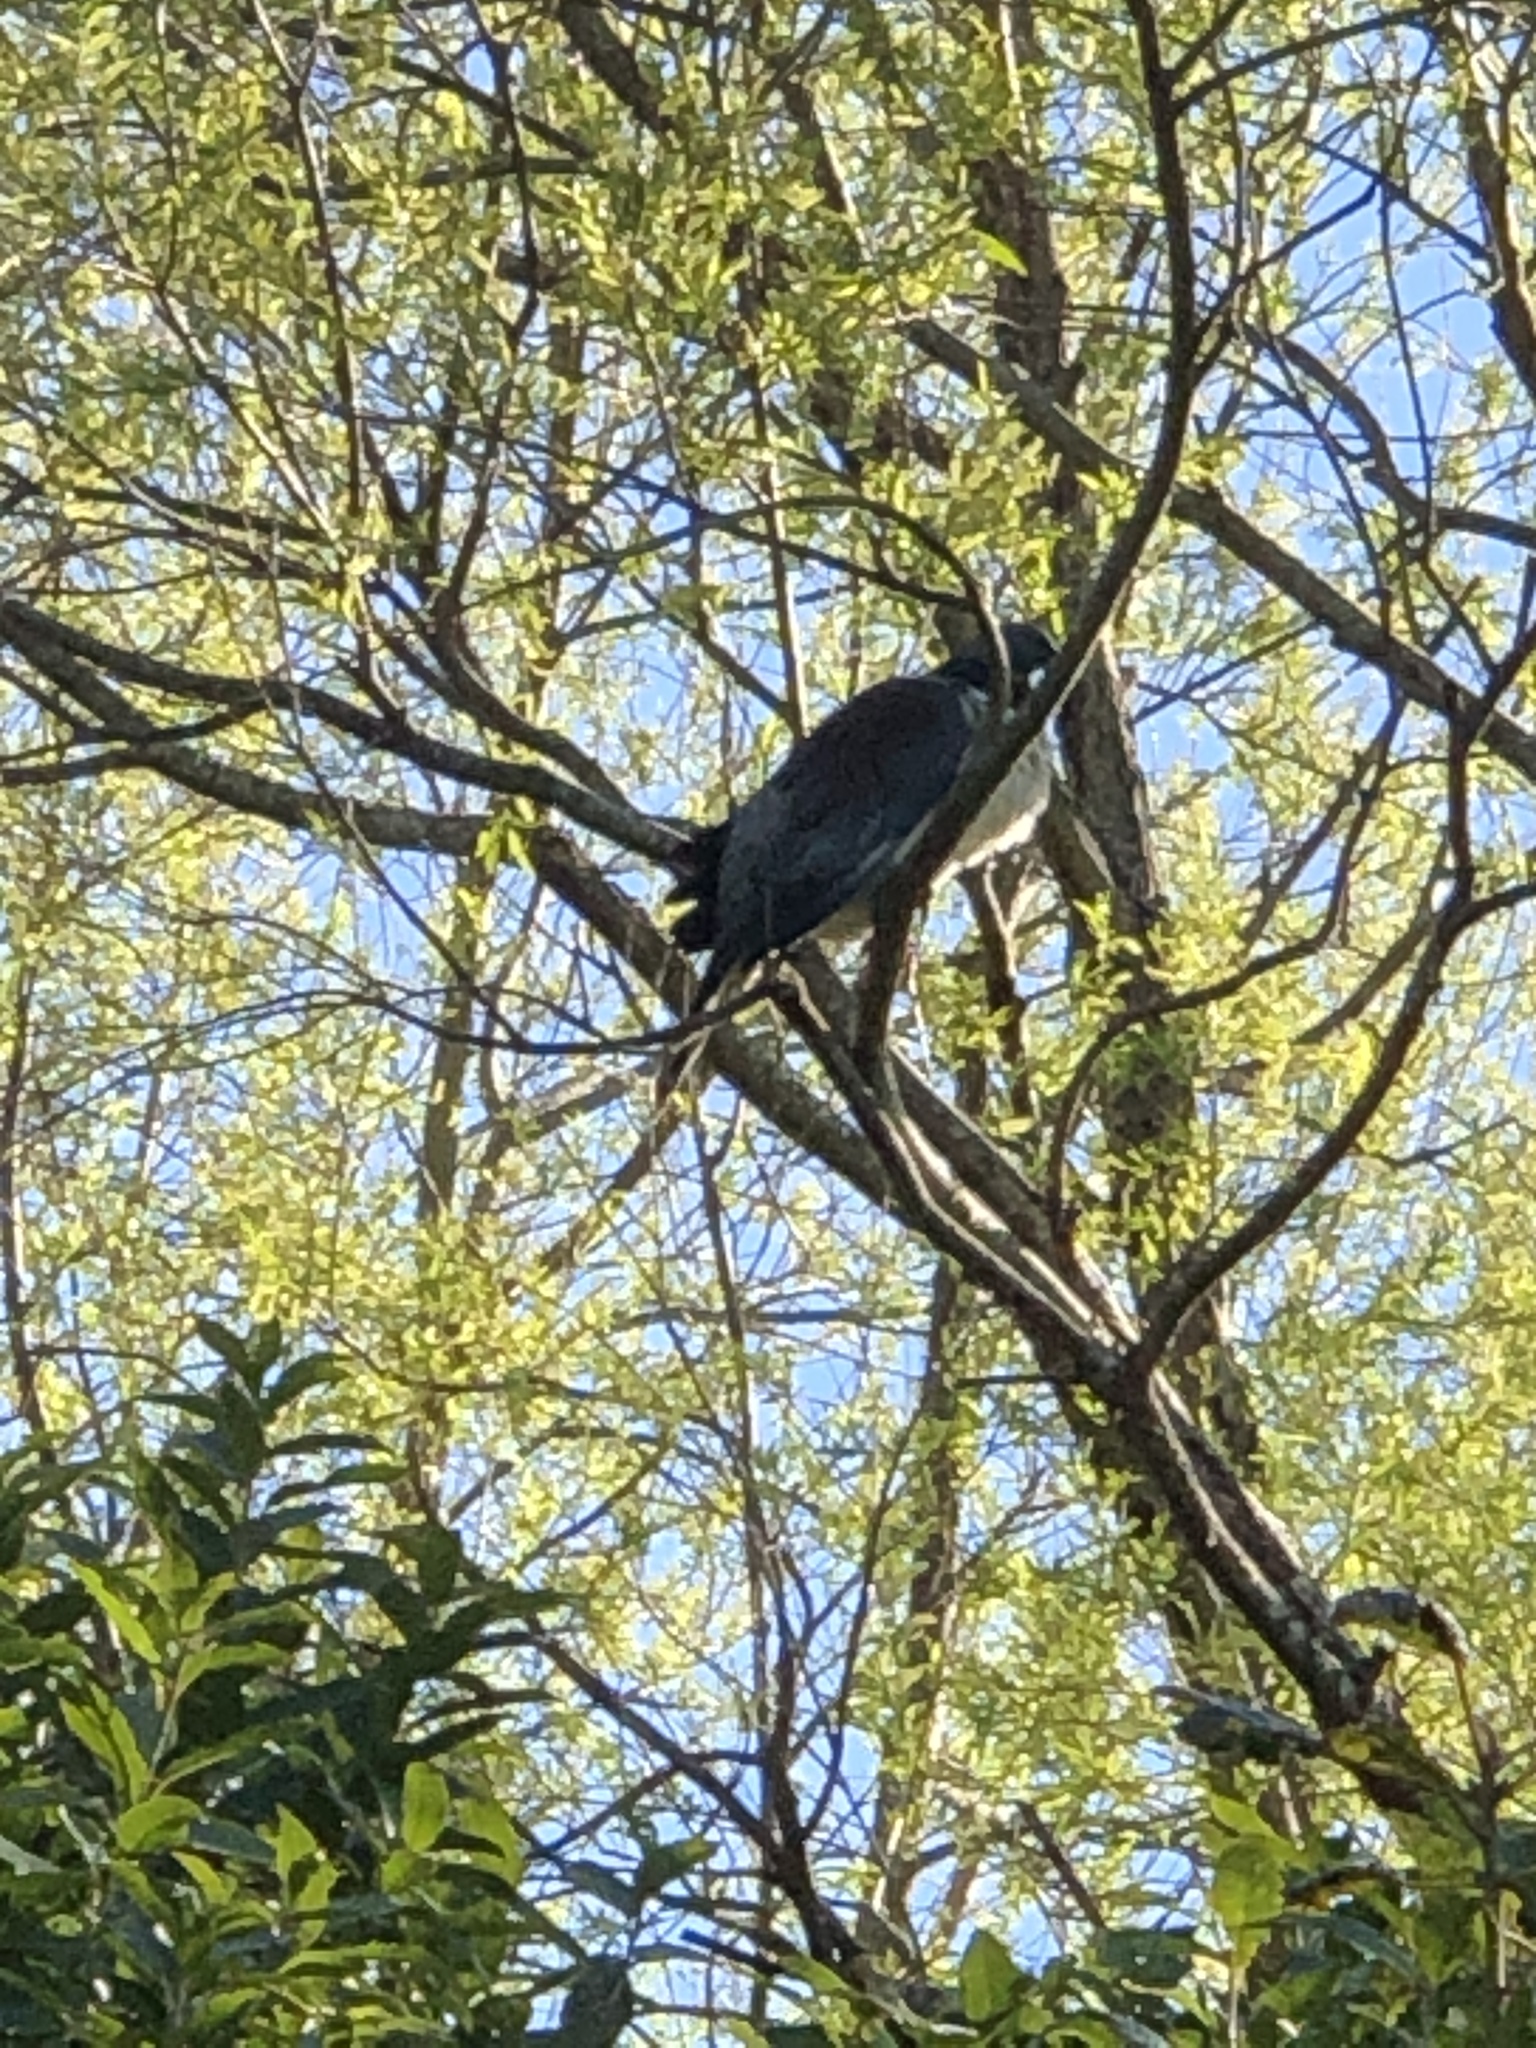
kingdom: Animalia
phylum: Chordata
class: Aves
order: Columbiformes
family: Columbidae
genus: Hemiphaga
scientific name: Hemiphaga novaeseelandiae
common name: New zealand pigeon
